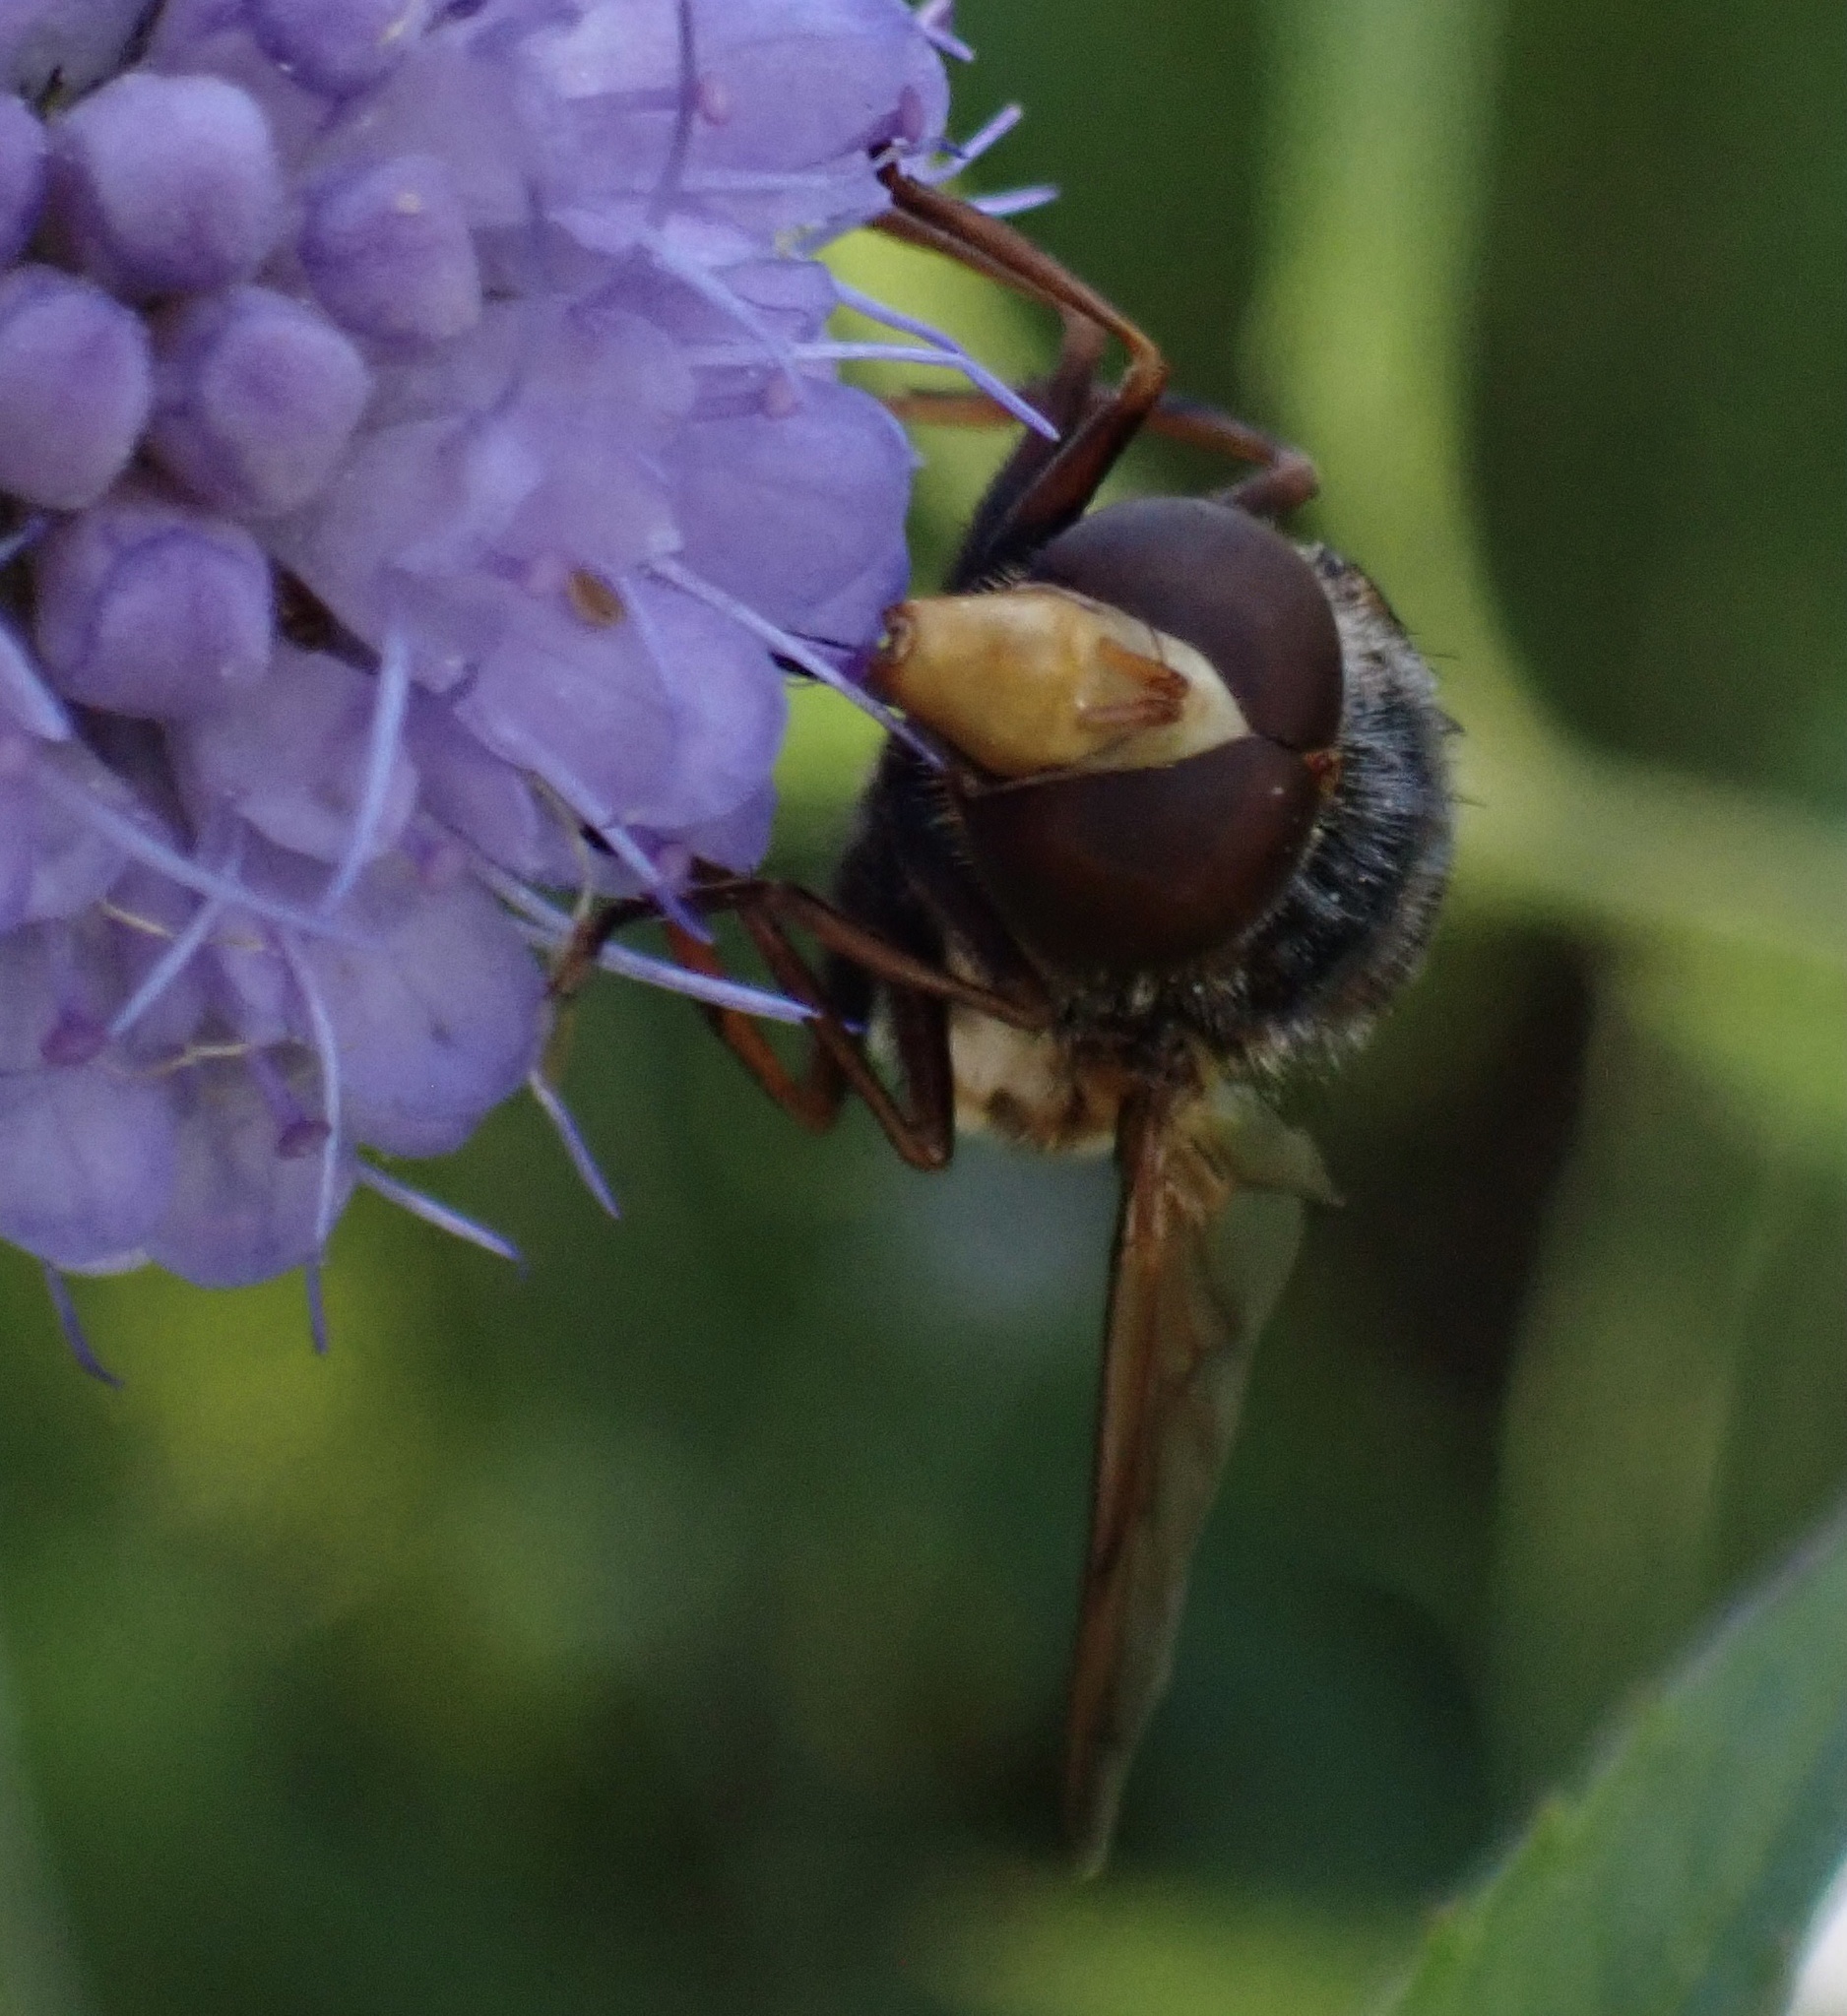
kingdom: Animalia
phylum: Arthropoda
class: Insecta
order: Diptera
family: Syrphidae
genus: Volucella
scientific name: Volucella inanis
